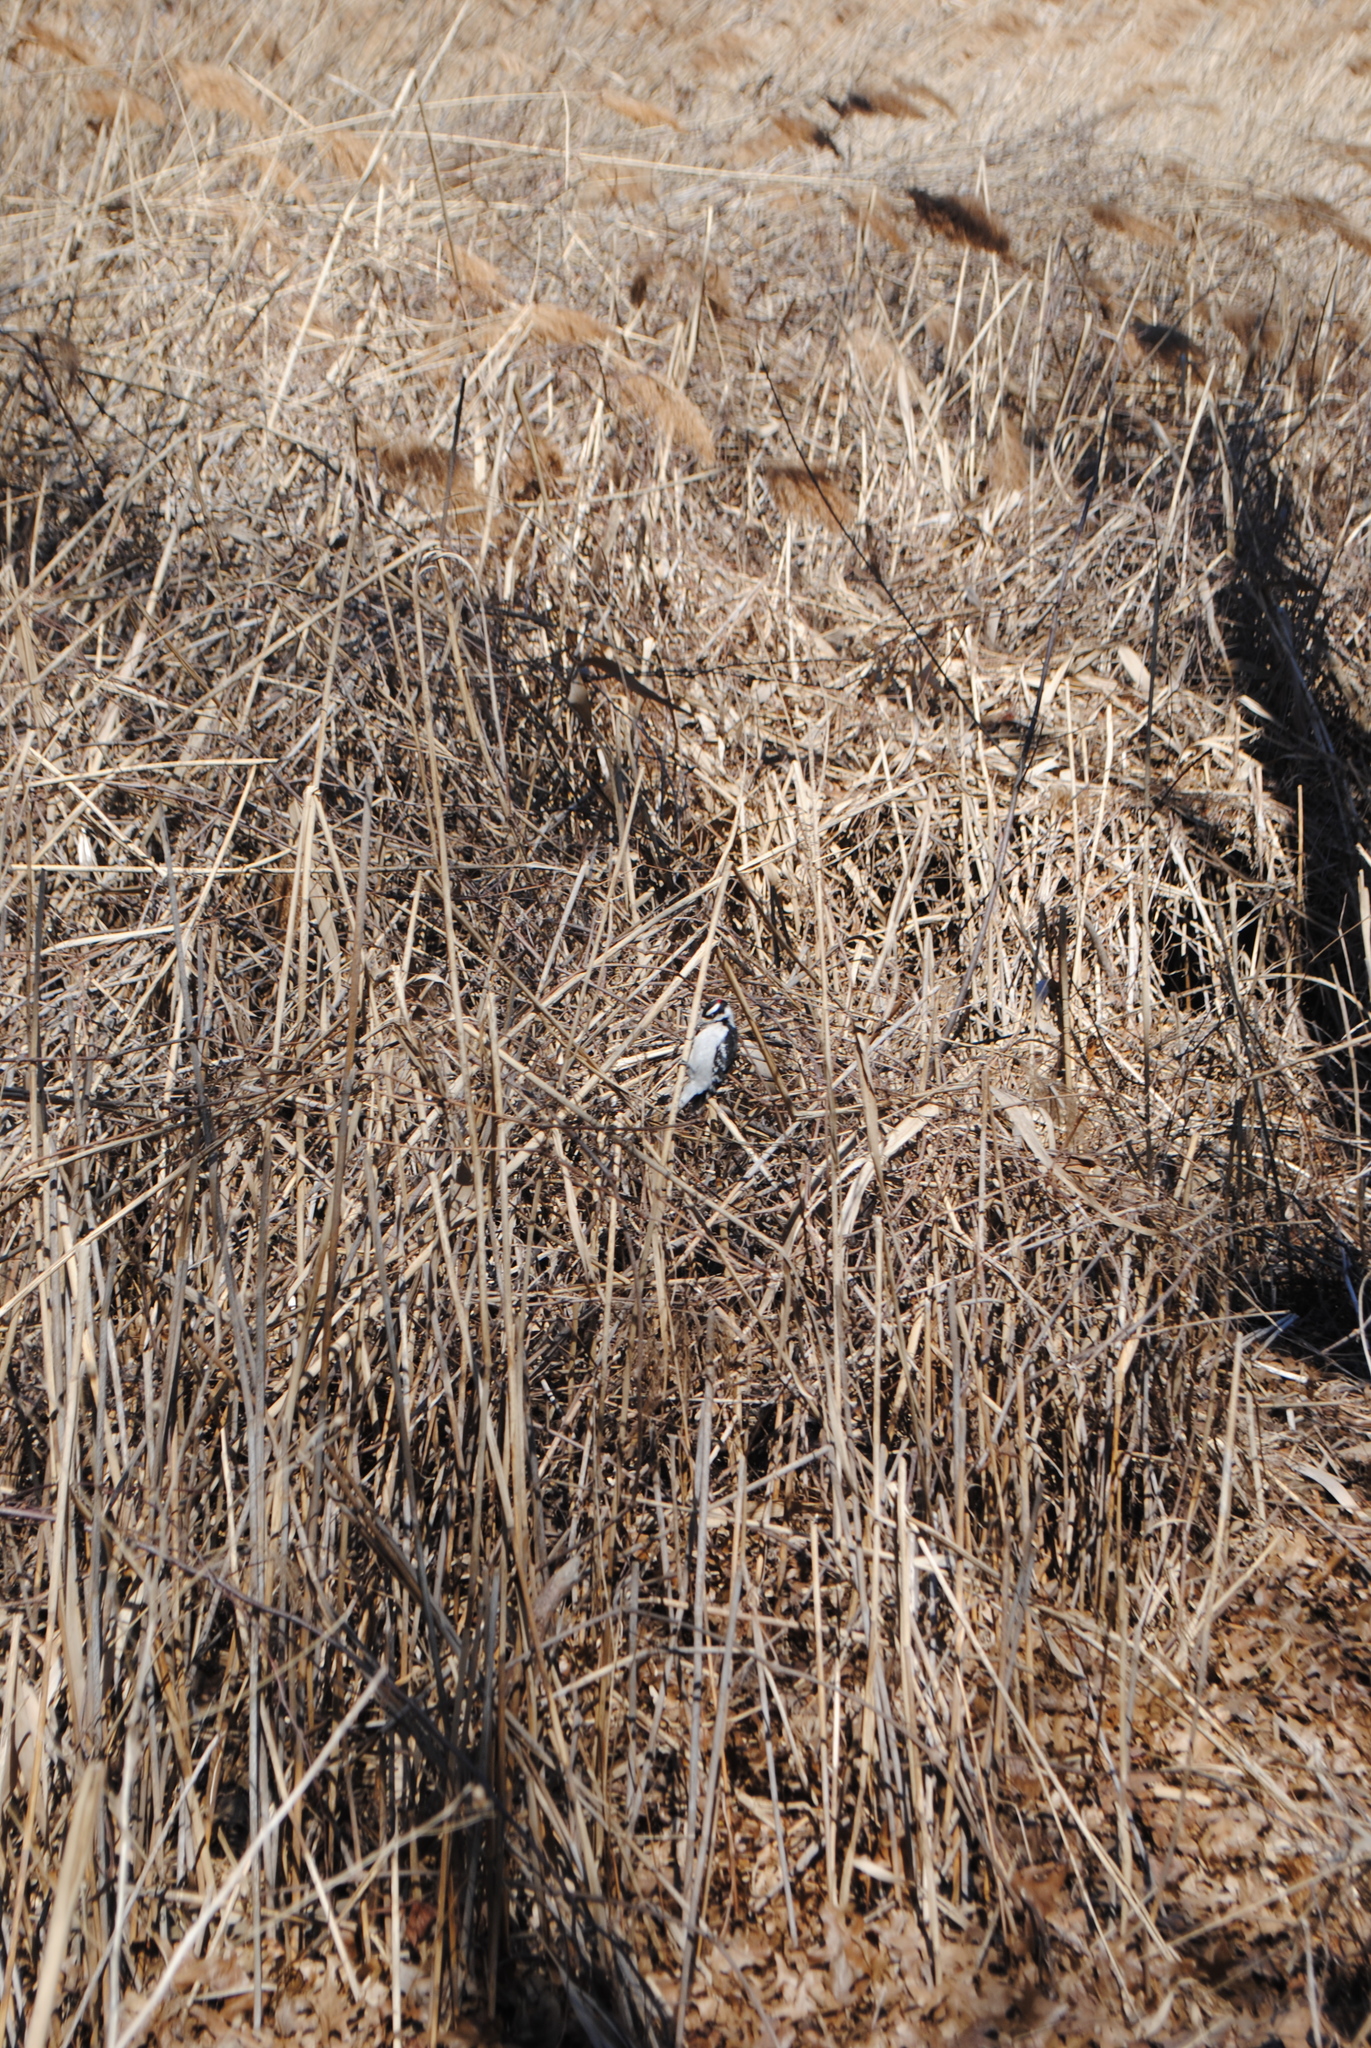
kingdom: Animalia
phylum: Chordata
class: Aves
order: Piciformes
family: Picidae
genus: Dryobates
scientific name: Dryobates pubescens
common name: Downy woodpecker
